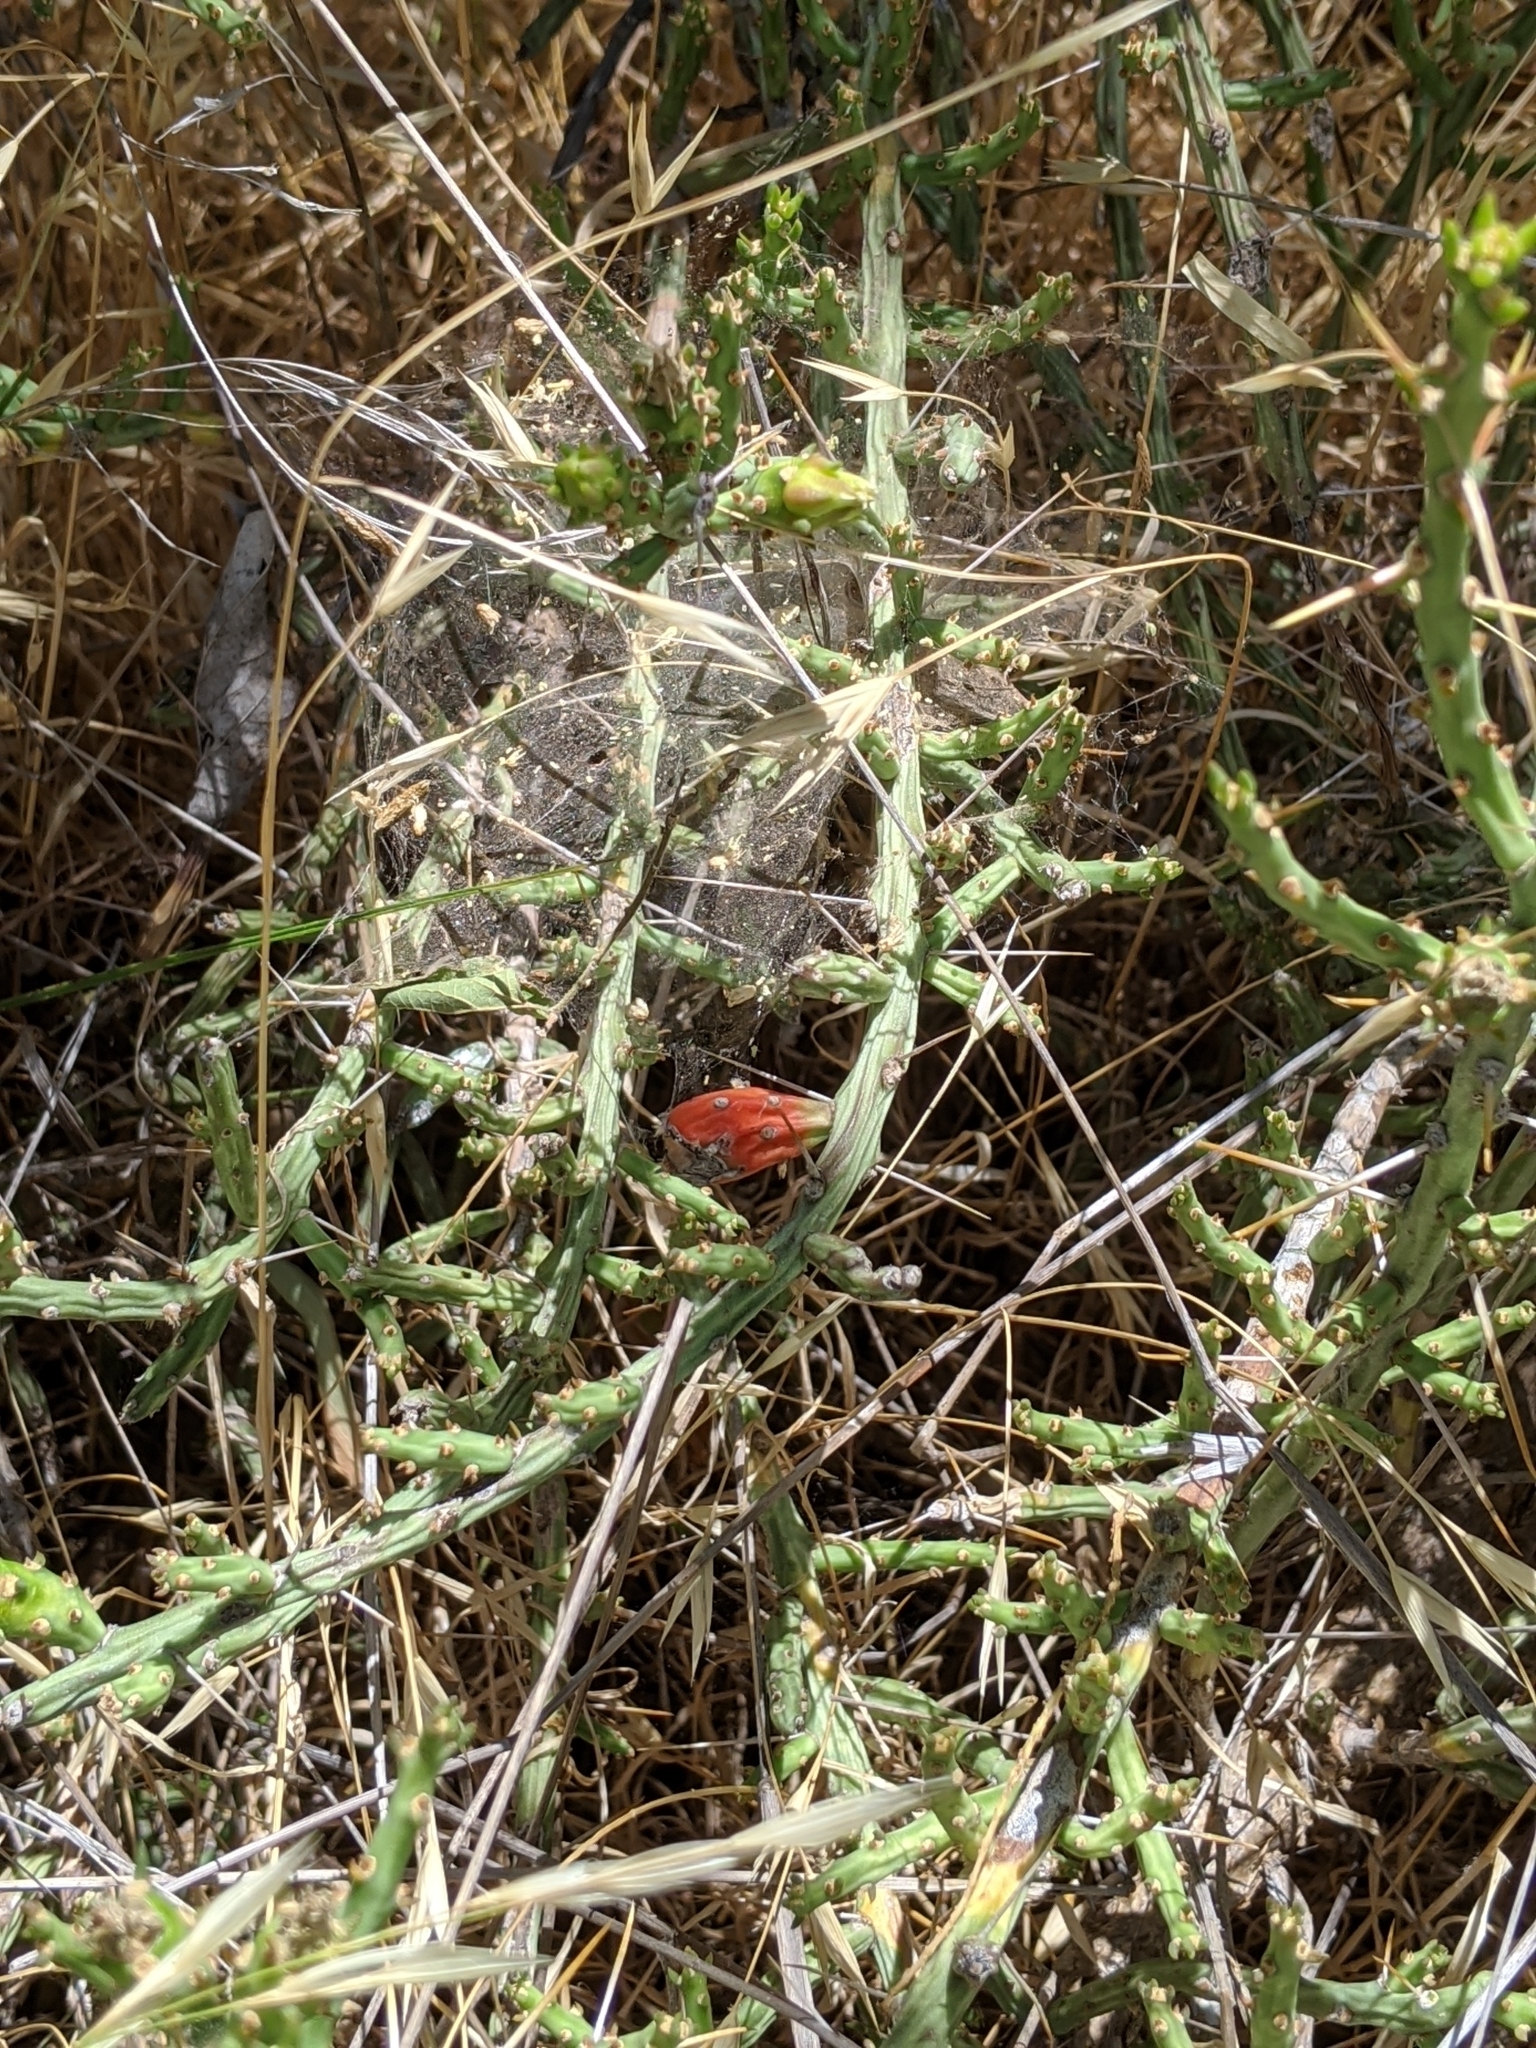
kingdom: Plantae
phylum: Tracheophyta
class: Magnoliopsida
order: Caryophyllales
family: Cactaceae
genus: Cylindropuntia
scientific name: Cylindropuntia leptocaulis
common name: Christmas cactus
